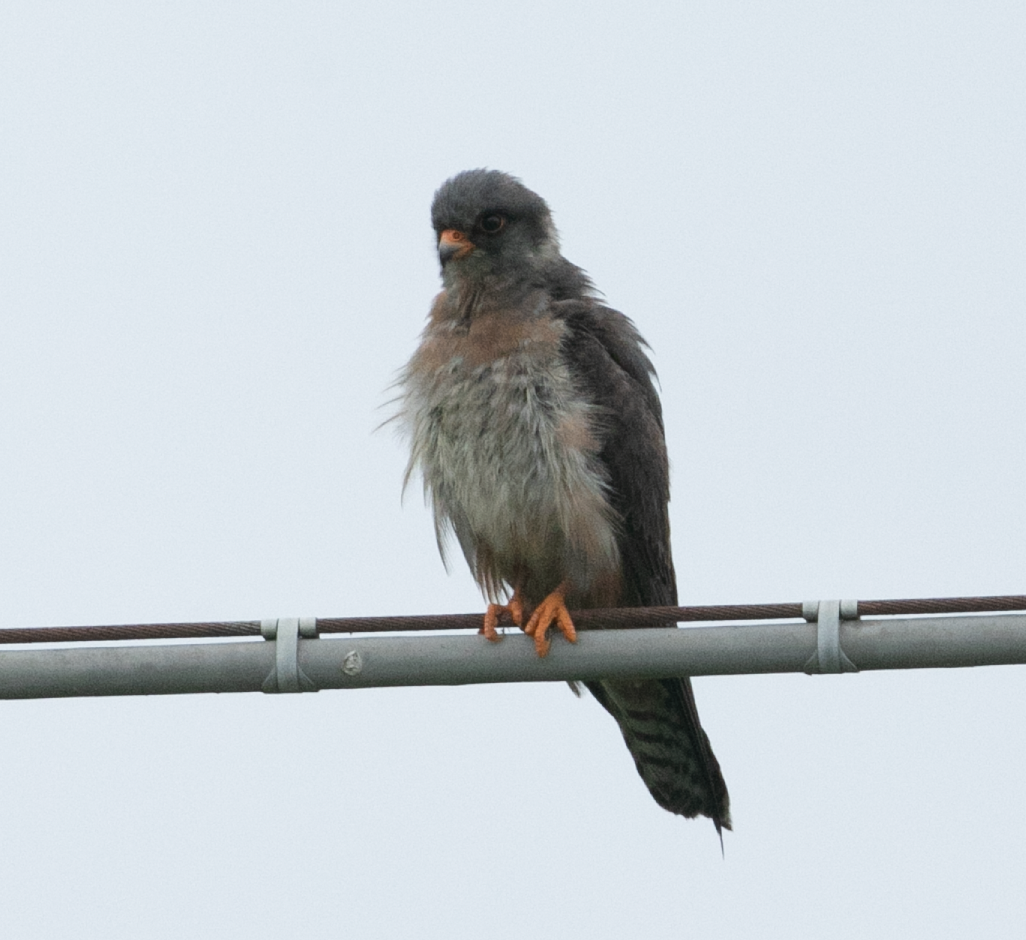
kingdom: Animalia
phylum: Chordata
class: Aves
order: Falconiformes
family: Falconidae
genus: Falco
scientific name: Falco vespertinus
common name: Red-footed falcon
